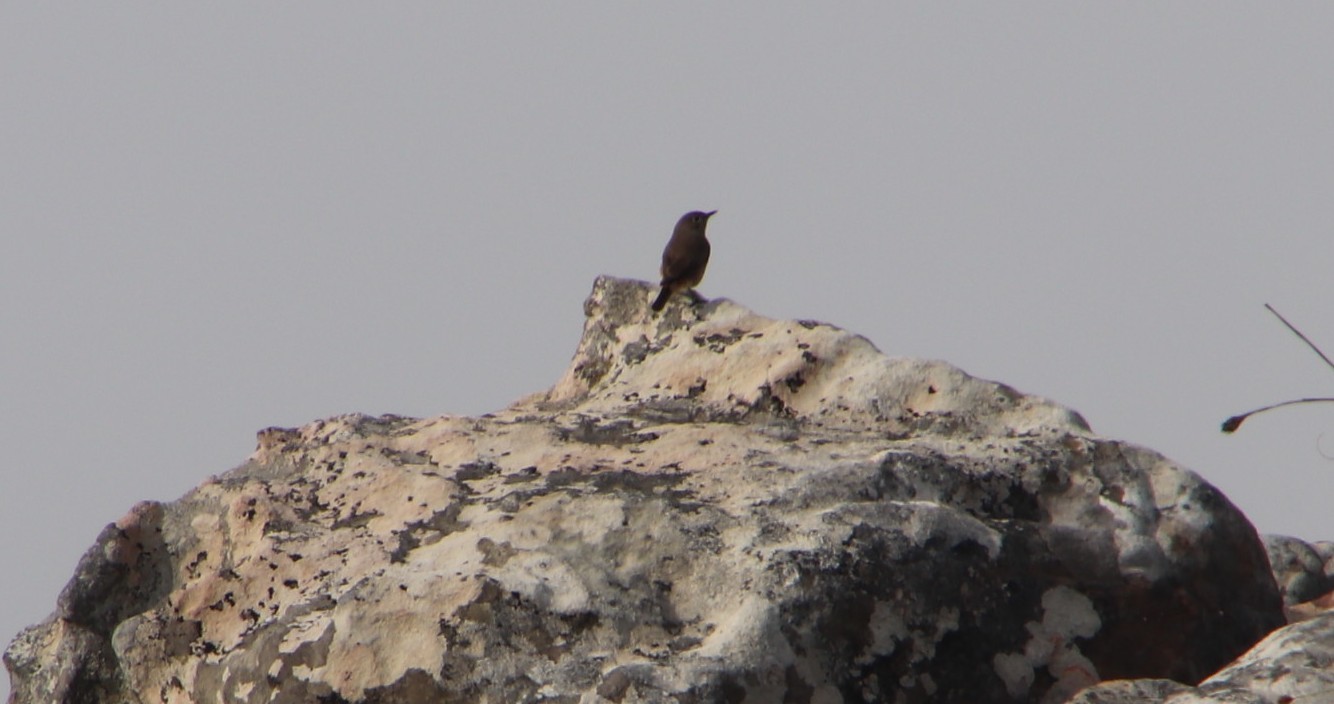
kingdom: Animalia
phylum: Chordata
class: Aves
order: Passeriformes
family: Muscicapidae
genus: Oenanthe
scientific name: Oenanthe familiaris
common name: Familiar chat
